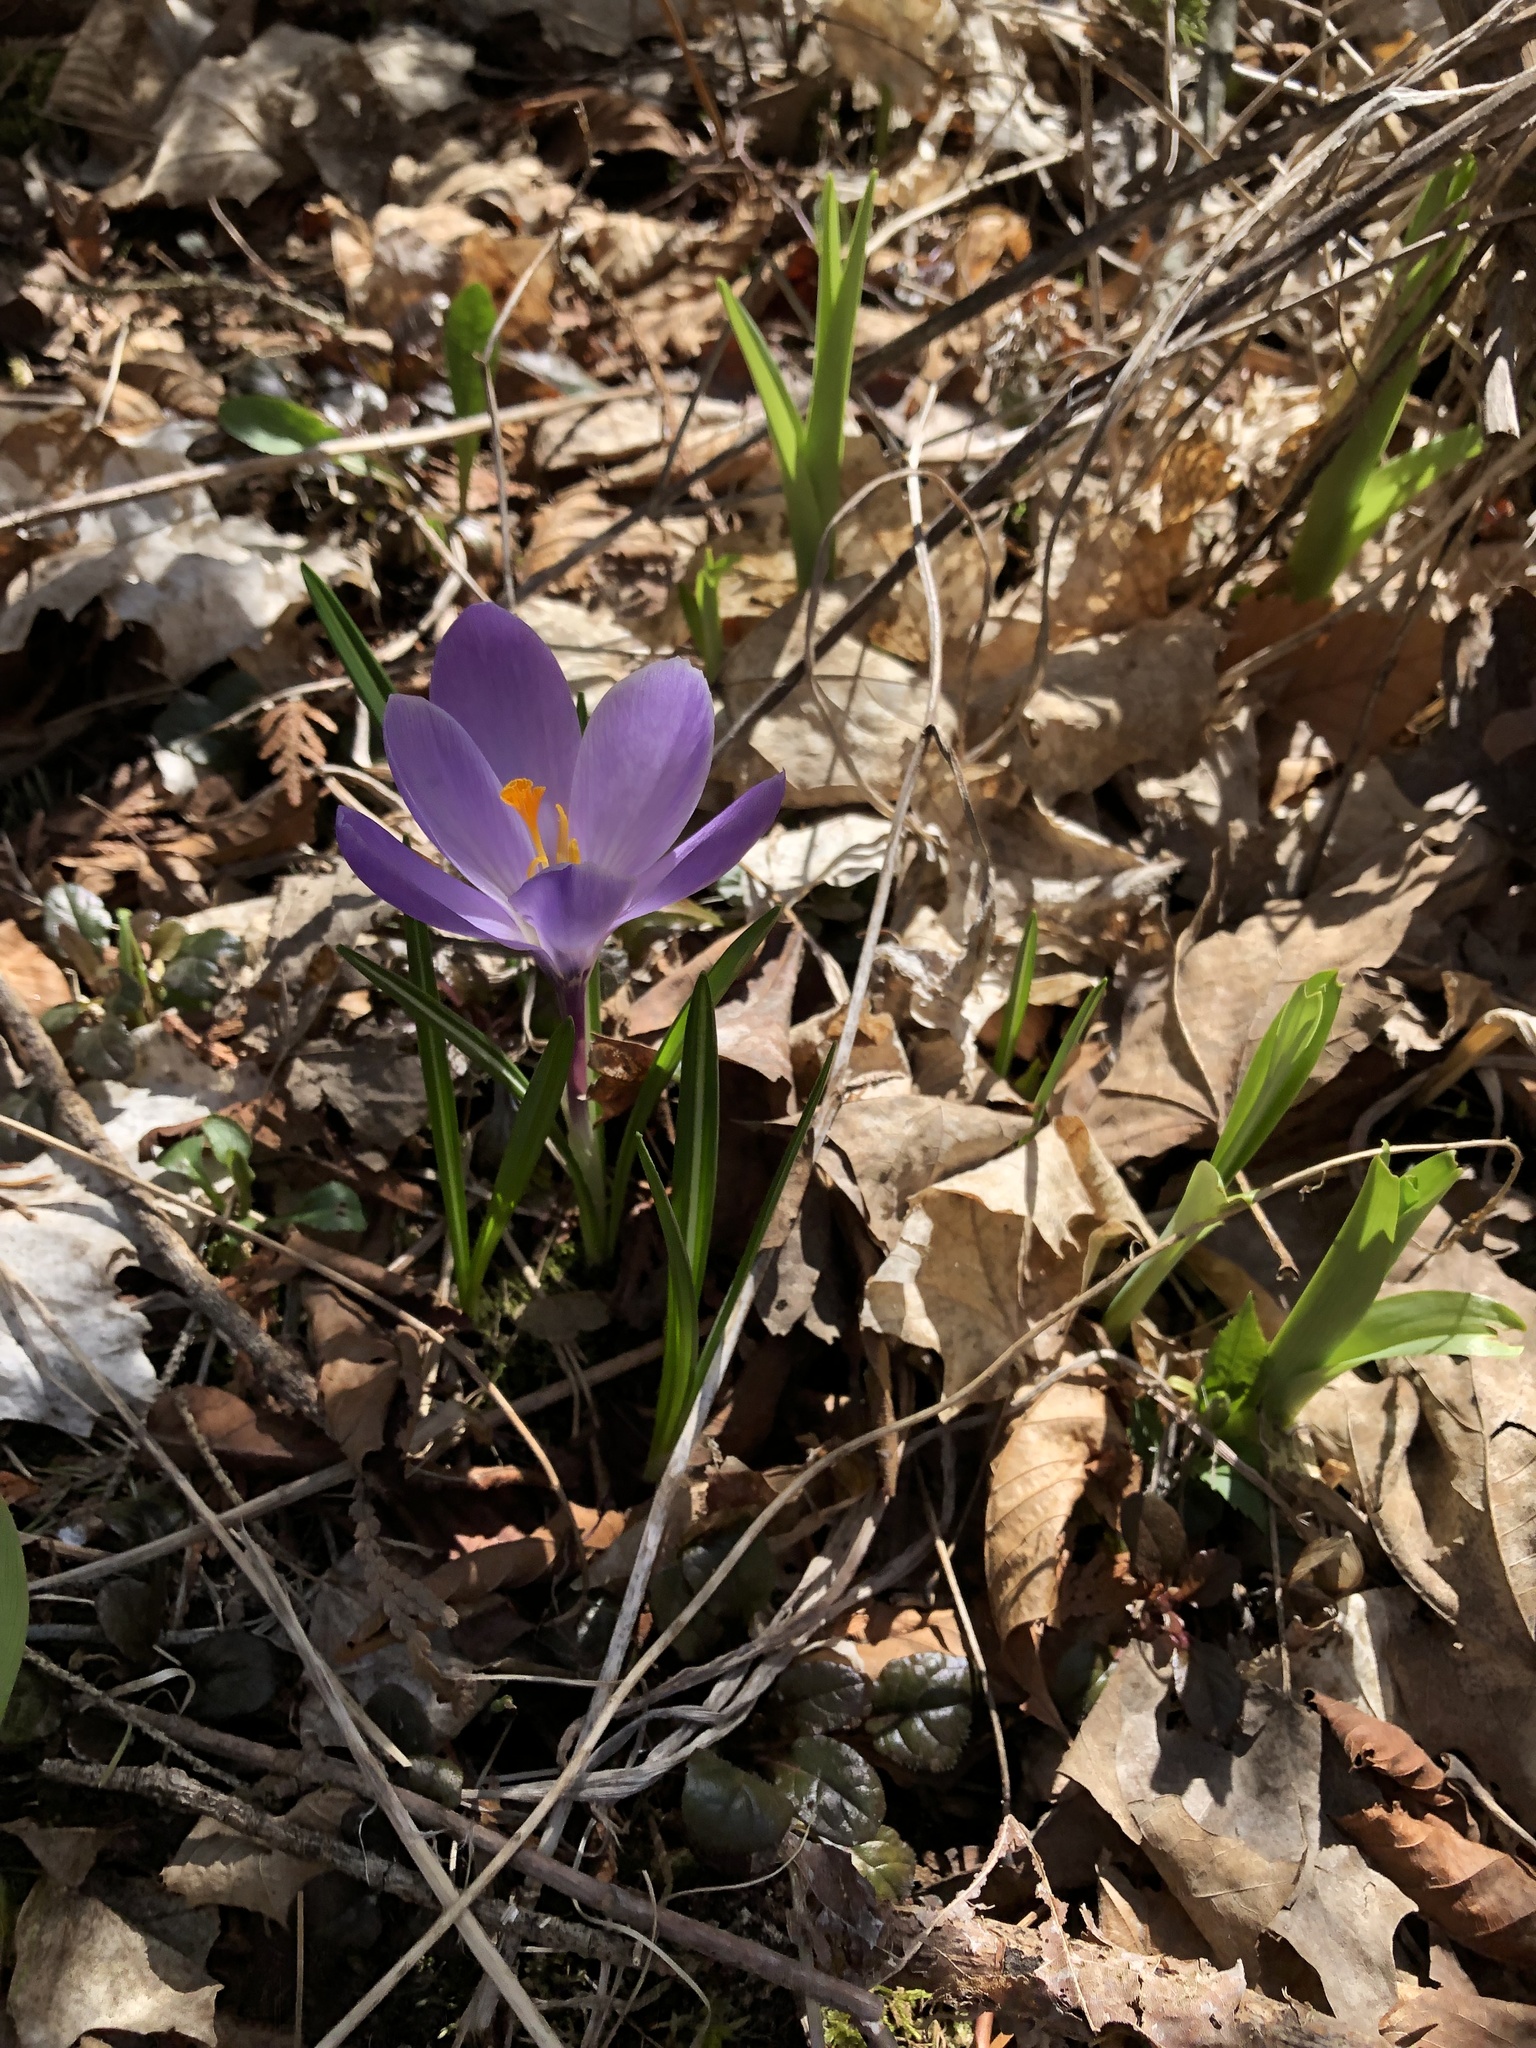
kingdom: Plantae
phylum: Tracheophyta
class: Liliopsida
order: Asparagales
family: Iridaceae
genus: Crocus
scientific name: Crocus tommasinianus
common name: Early crocus
